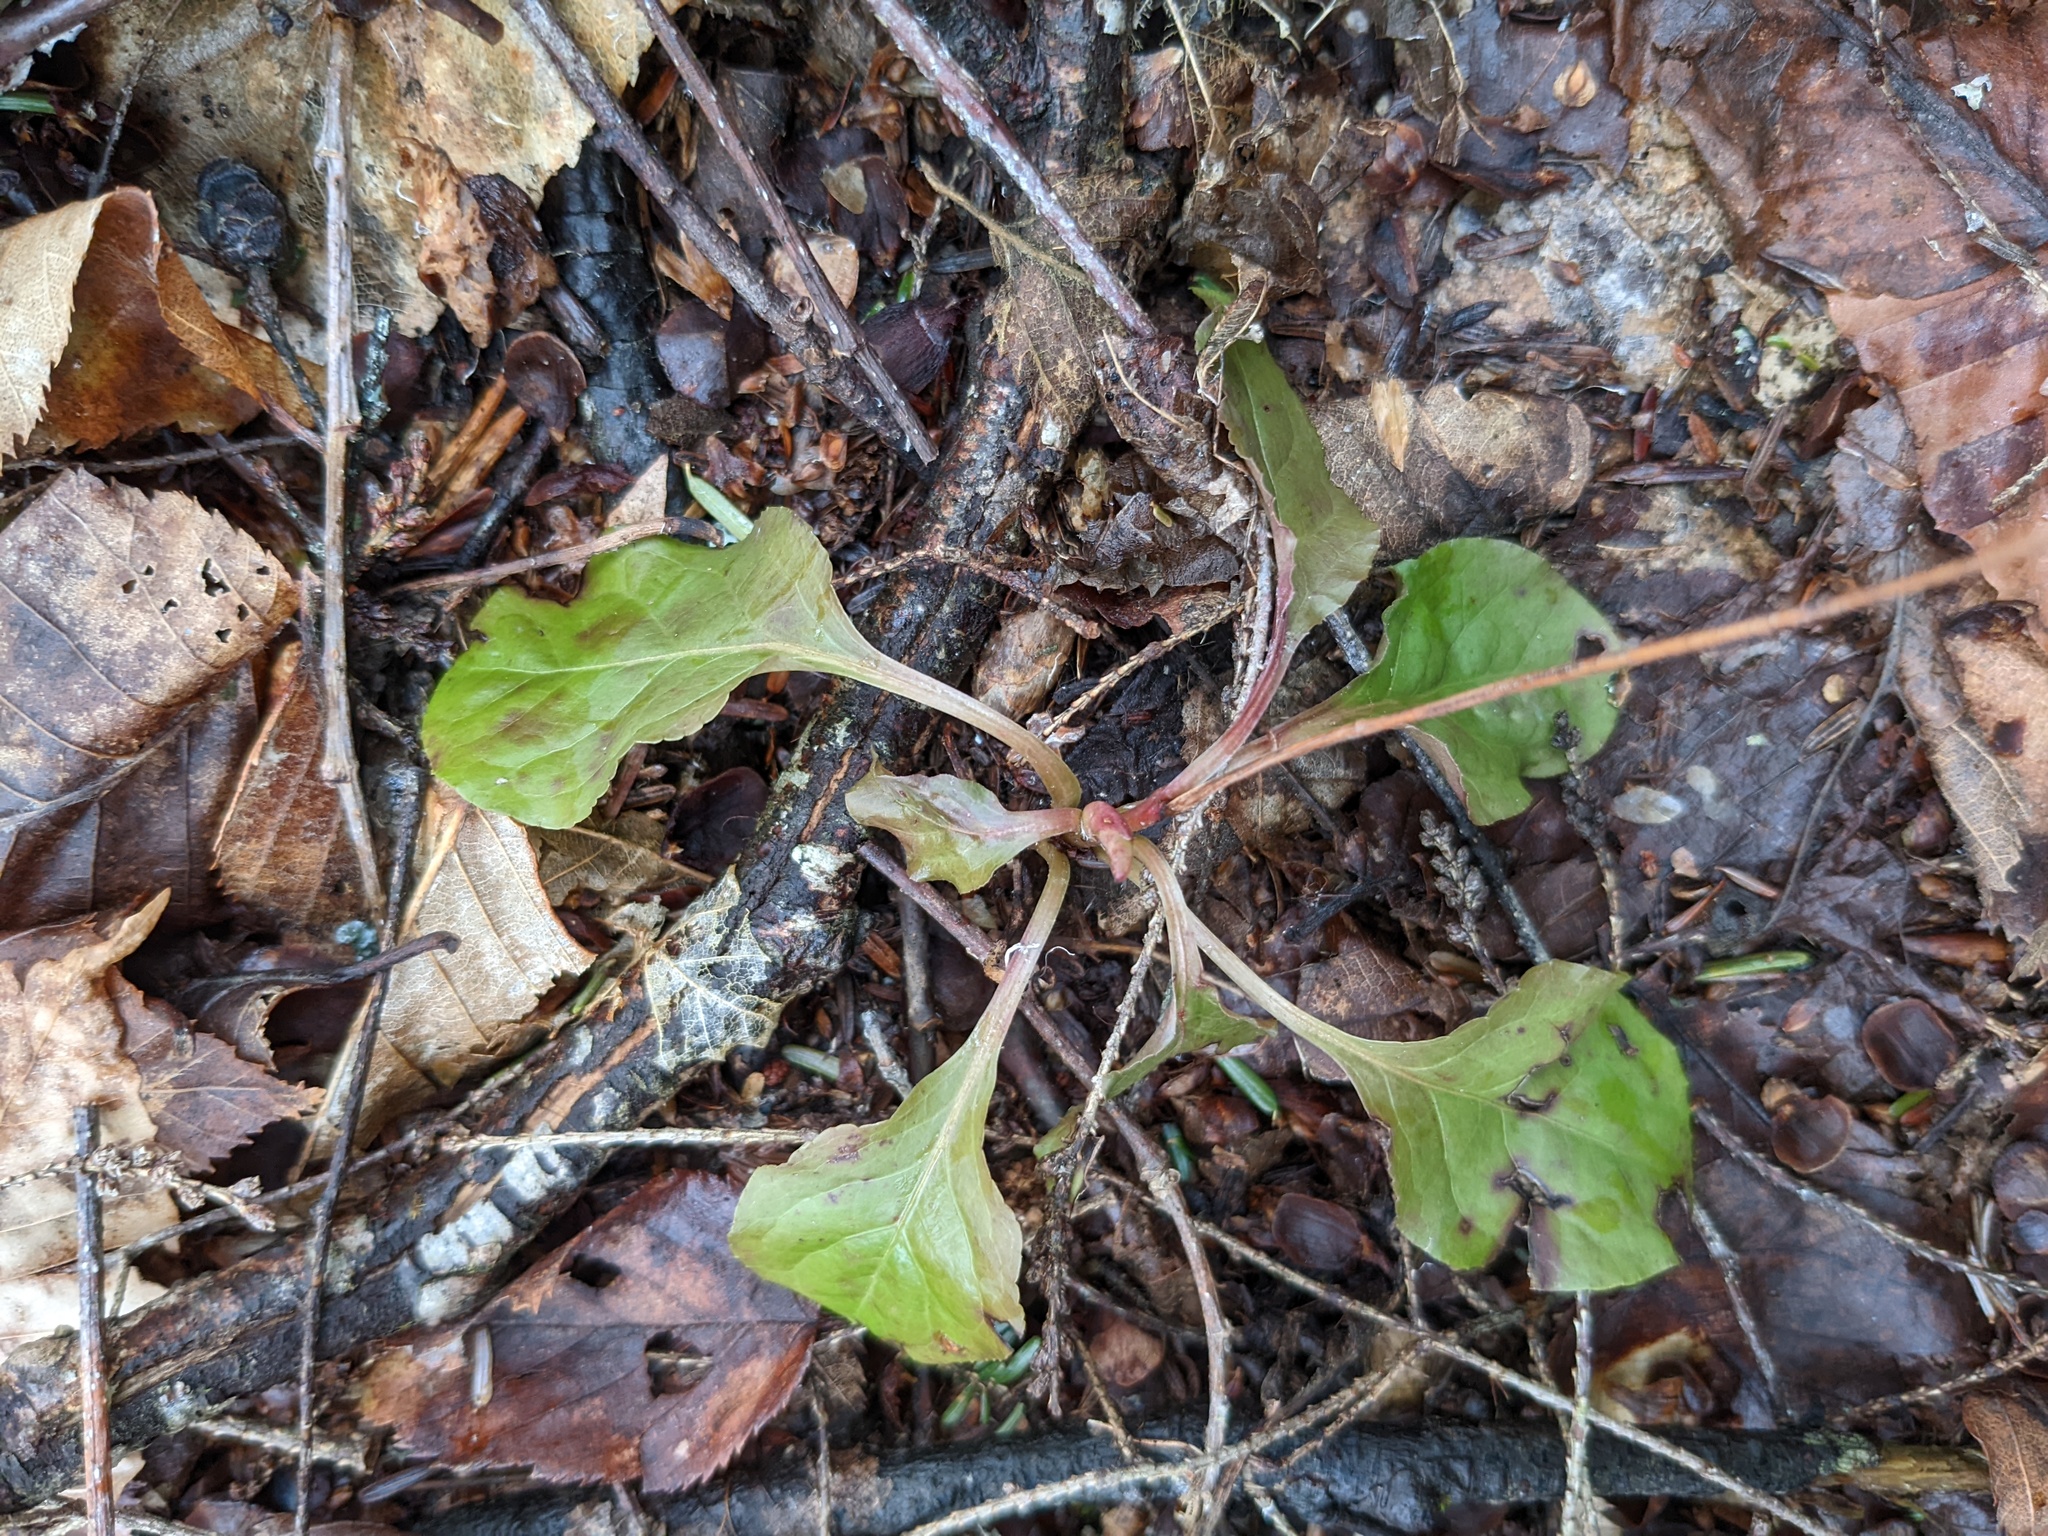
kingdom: Plantae
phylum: Tracheophyta
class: Magnoliopsida
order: Ericales
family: Ericaceae
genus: Pyrola
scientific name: Pyrola elliptica
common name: Shinleaf
